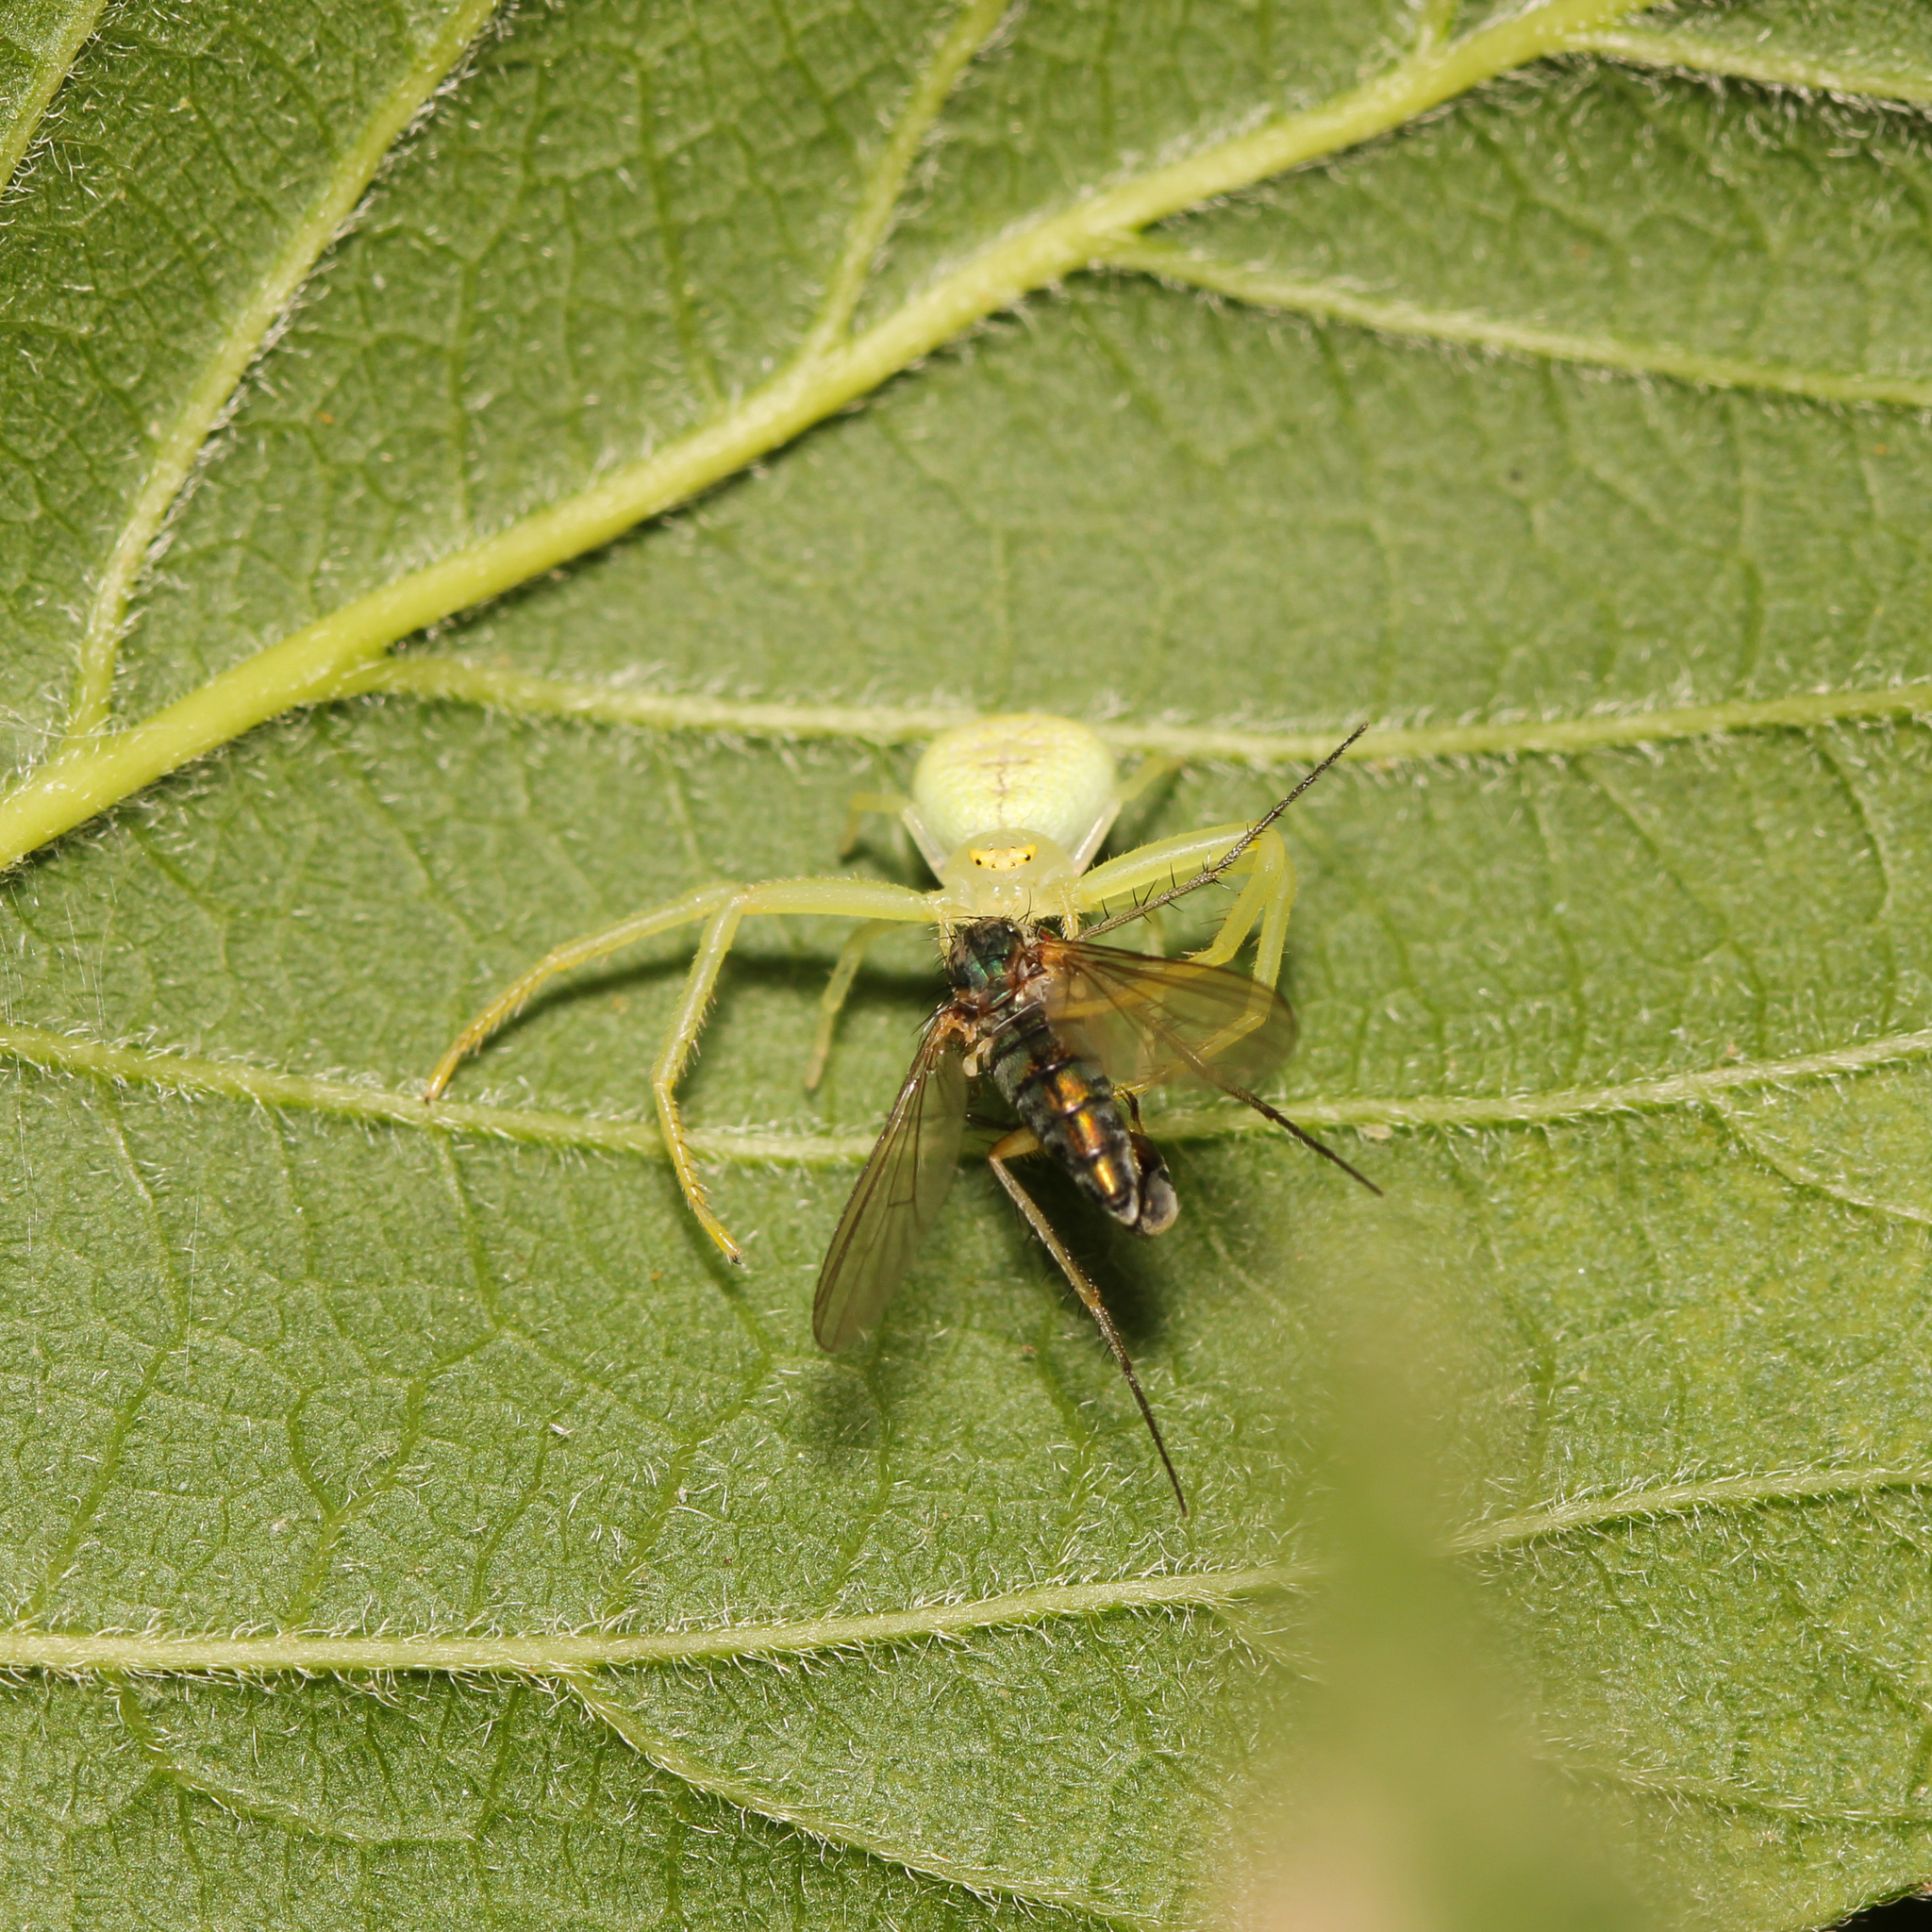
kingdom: Animalia
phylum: Arthropoda
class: Arachnida
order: Araneae
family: Thomisidae
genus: Misumessus
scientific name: Misumessus oblongus
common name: American green crab spider
